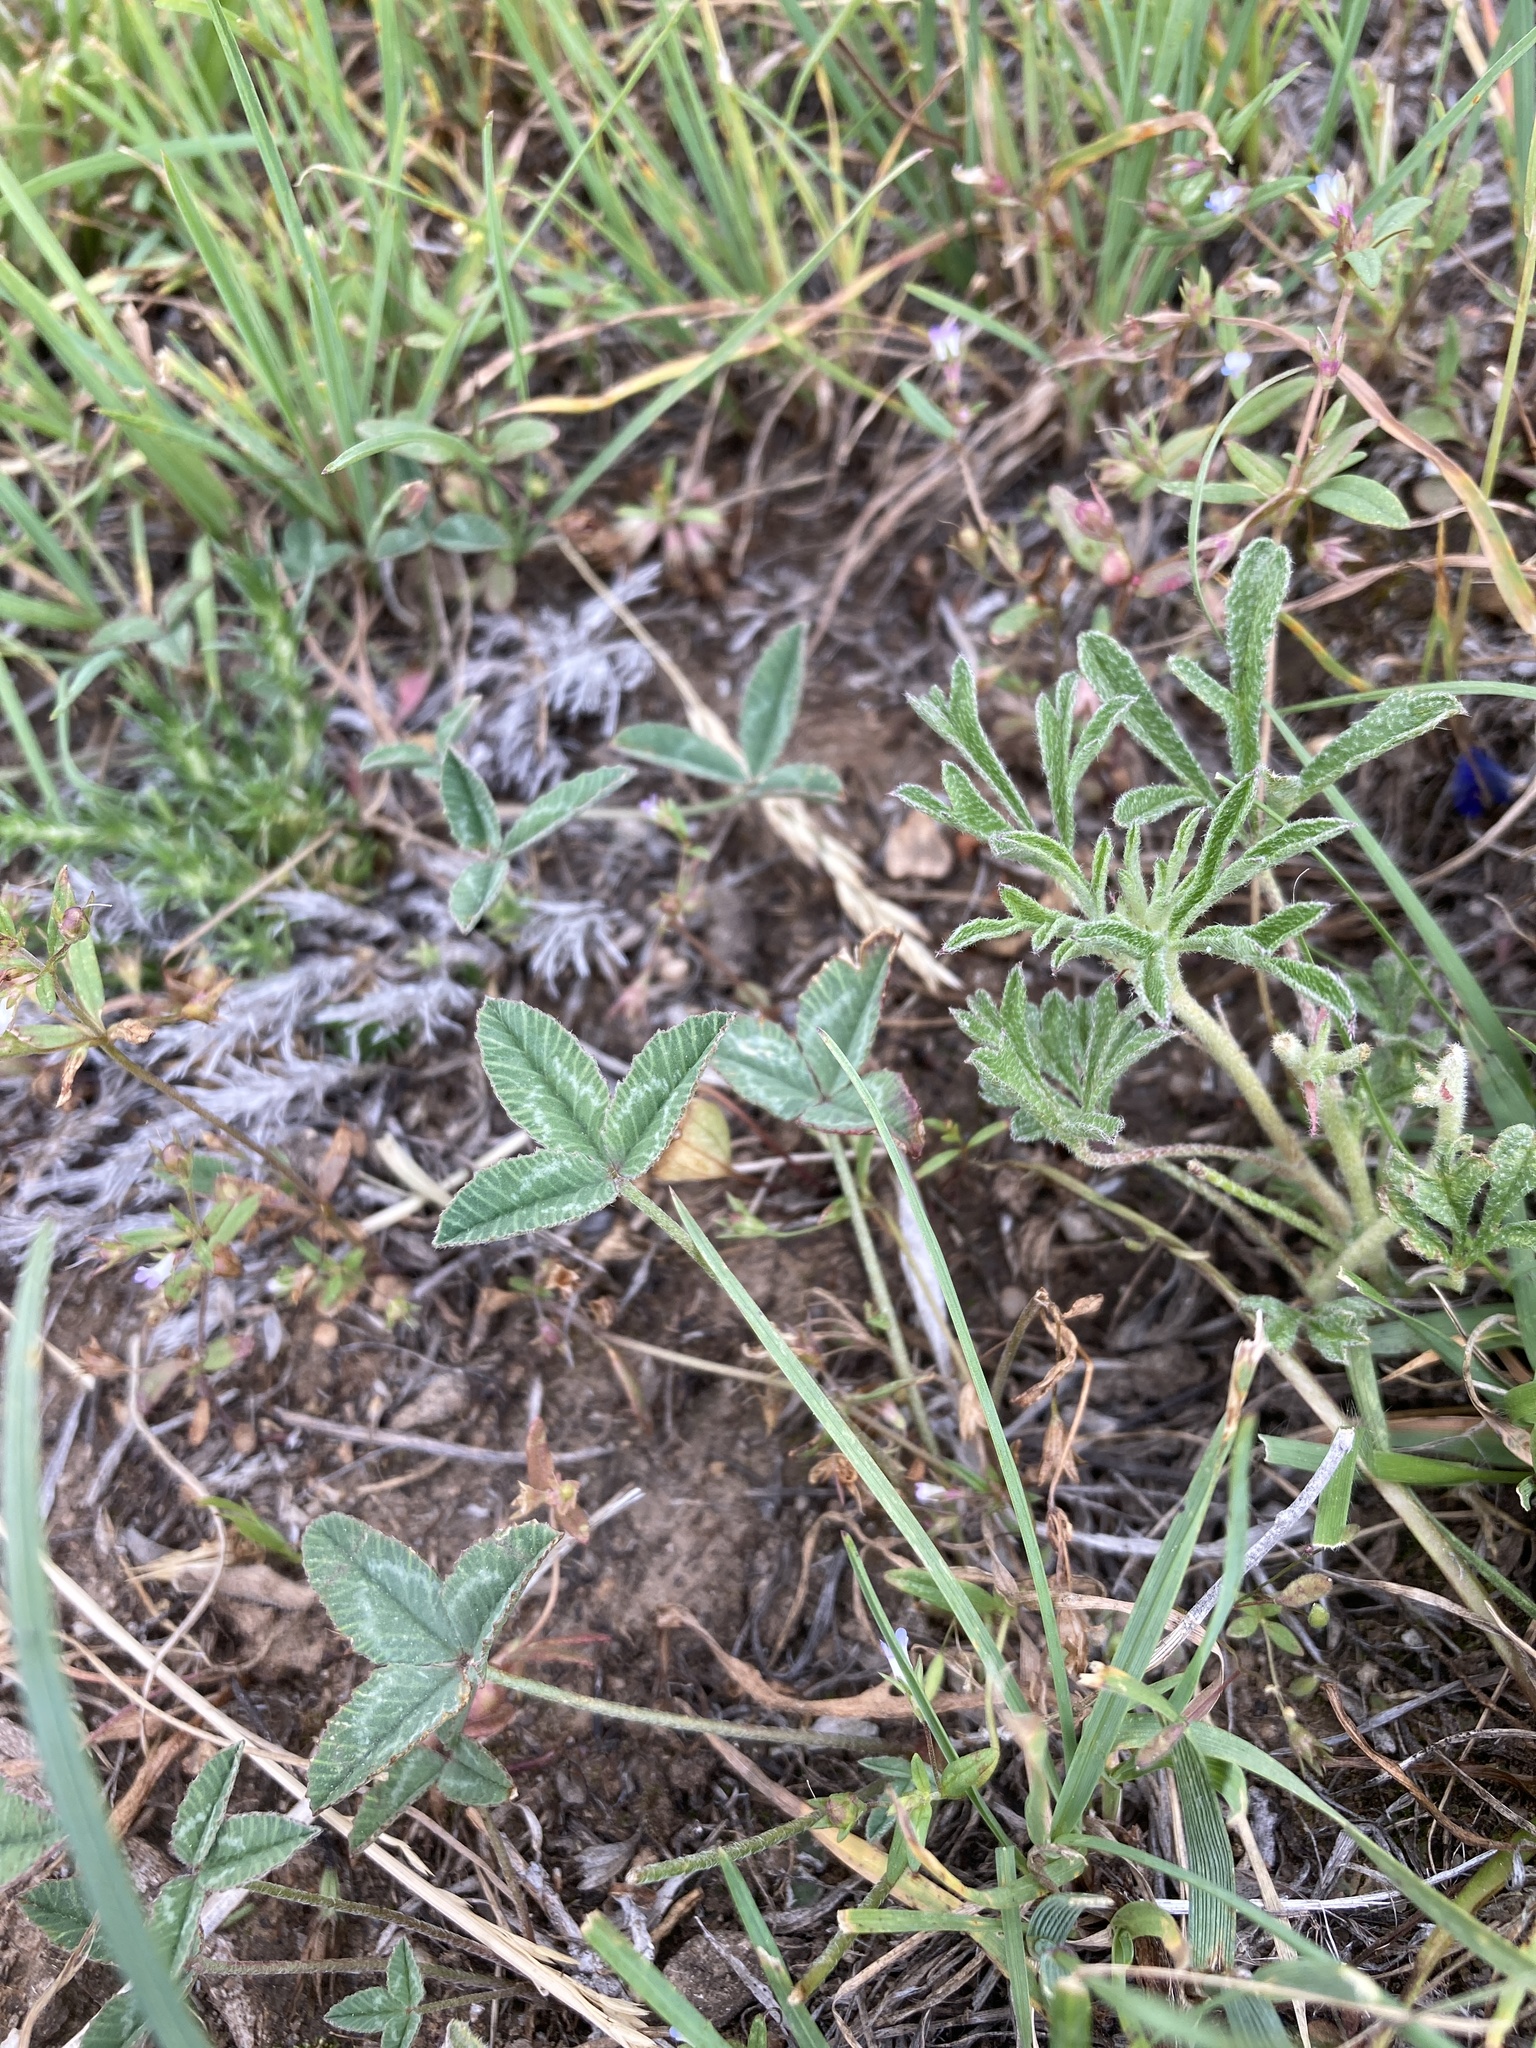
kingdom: Plantae
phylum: Tracheophyta
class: Magnoliopsida
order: Fabales
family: Fabaceae
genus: Trifolium
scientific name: Trifolium gymnocarpon
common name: Tufted clover
